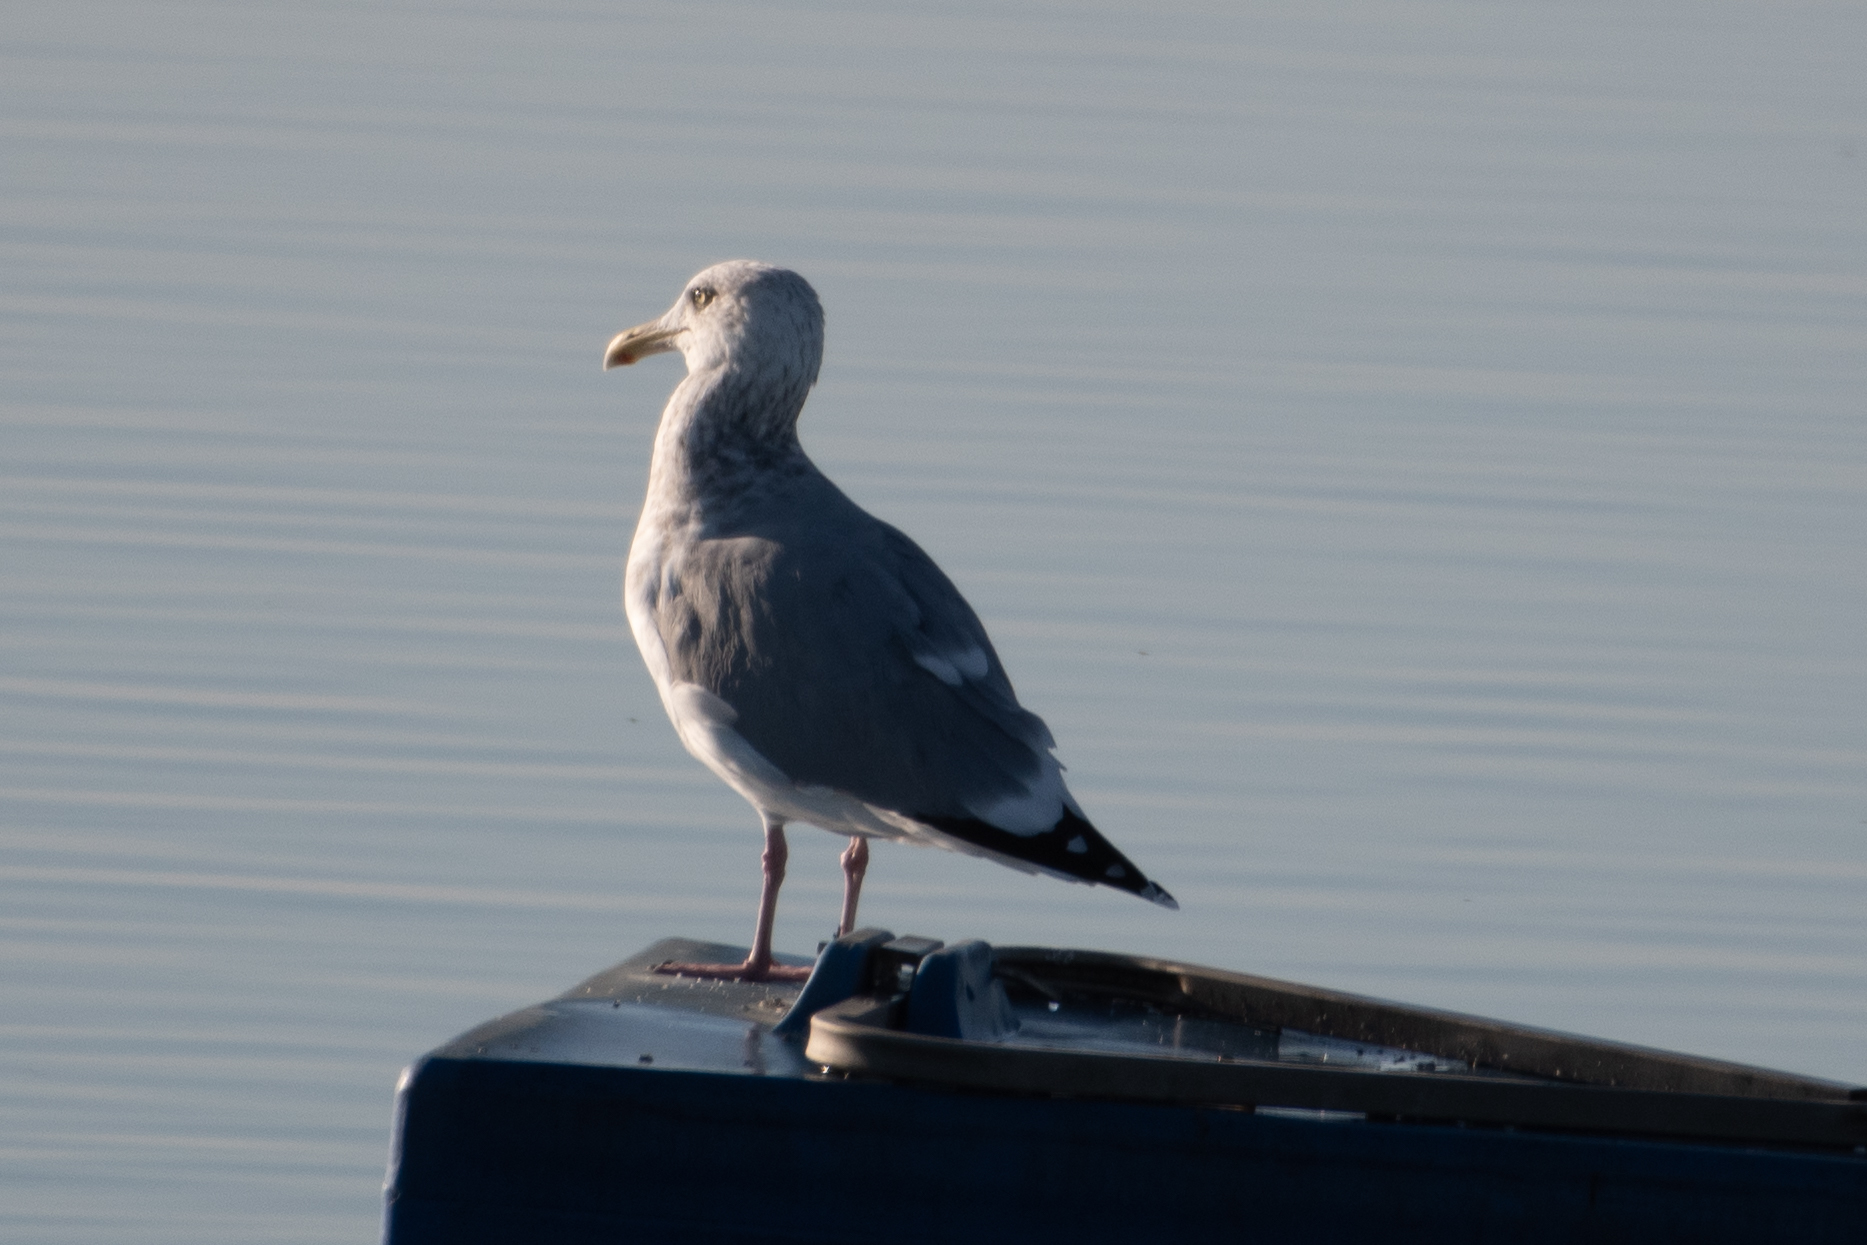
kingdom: Animalia
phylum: Chordata
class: Aves
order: Charadriiformes
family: Laridae
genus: Larus
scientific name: Larus argentatus
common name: Herring gull
